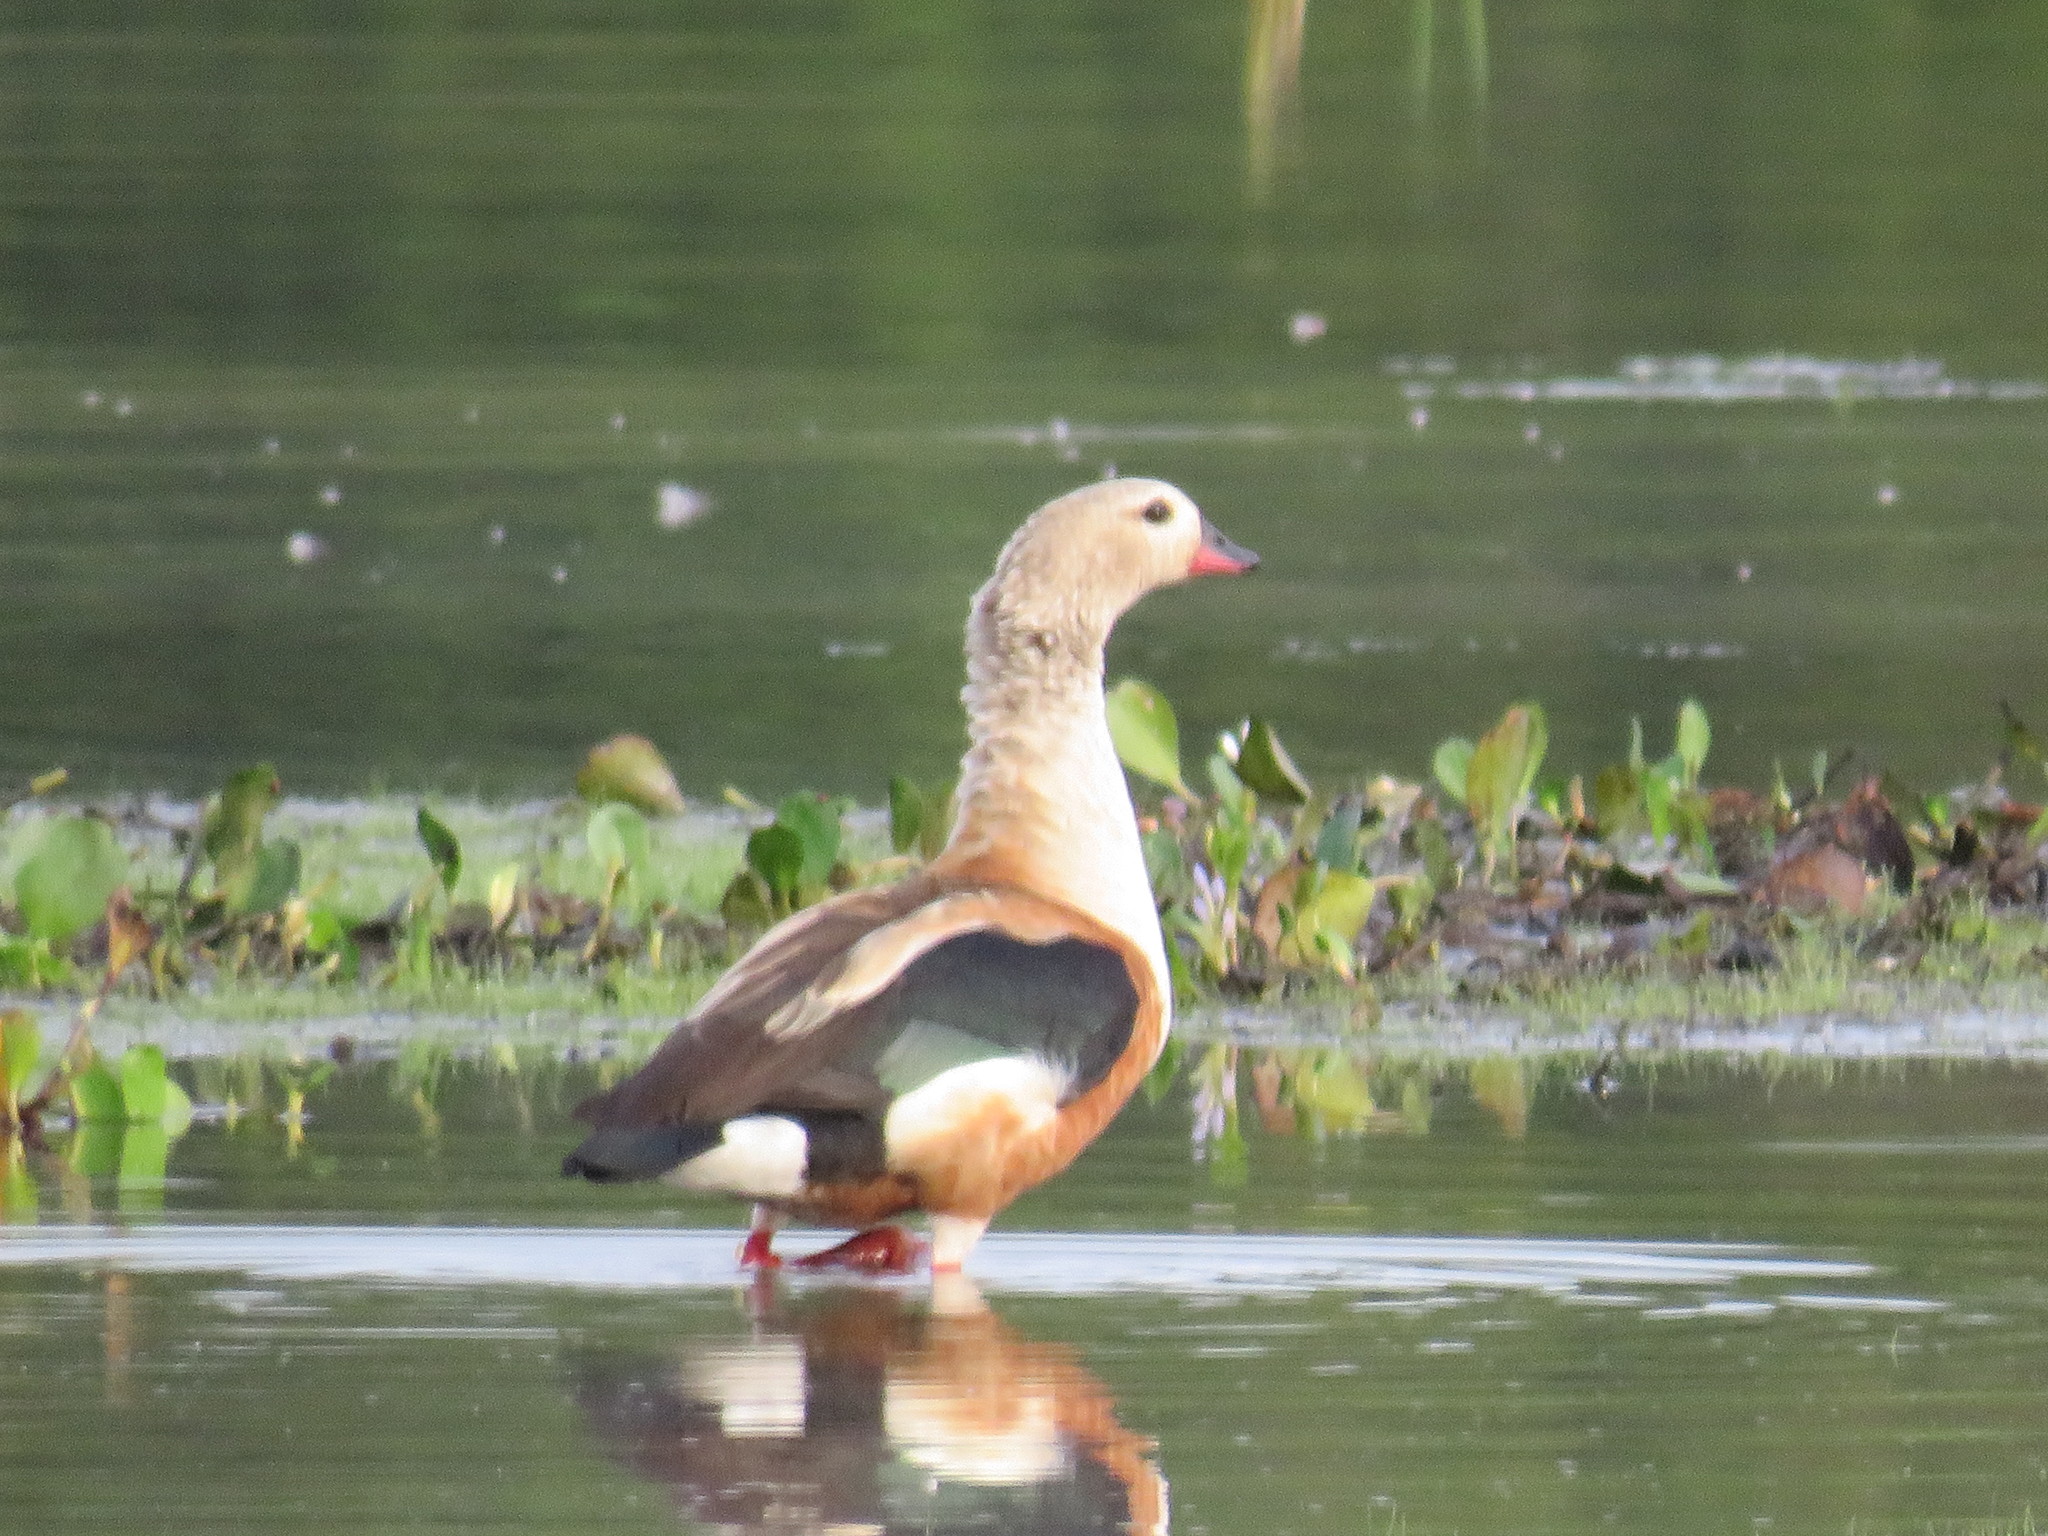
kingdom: Animalia
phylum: Chordata
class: Aves
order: Anseriformes
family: Anatidae
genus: Oressochen
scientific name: Oressochen jubatus
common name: Orinoco goose
